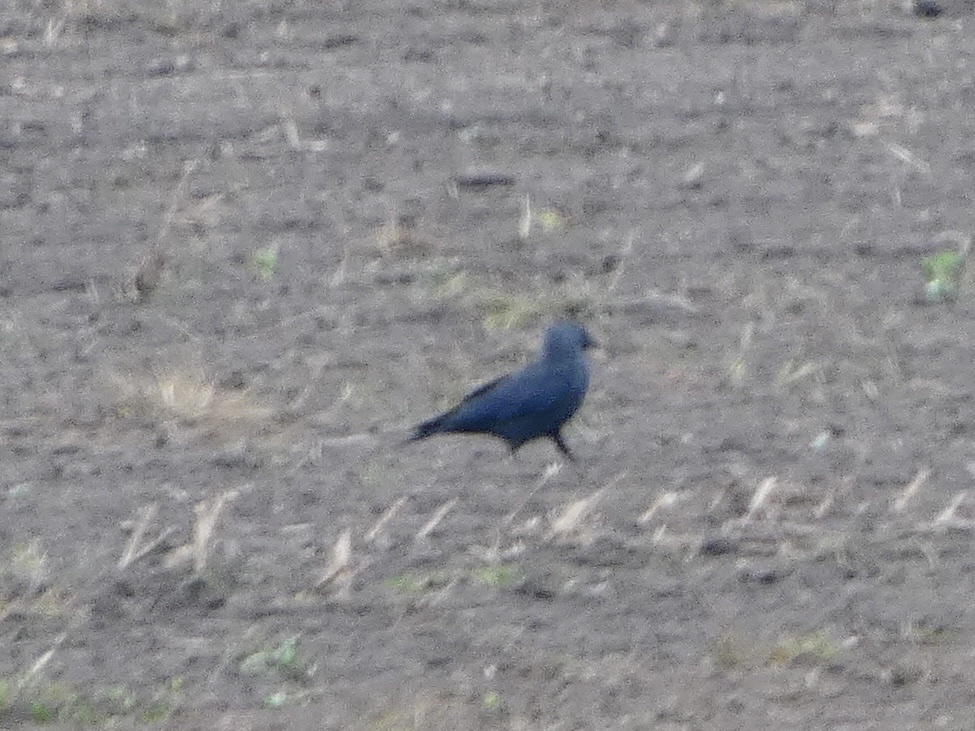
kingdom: Animalia
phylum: Chordata
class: Aves
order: Passeriformes
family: Corvidae
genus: Coloeus
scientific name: Coloeus monedula
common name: Western jackdaw
